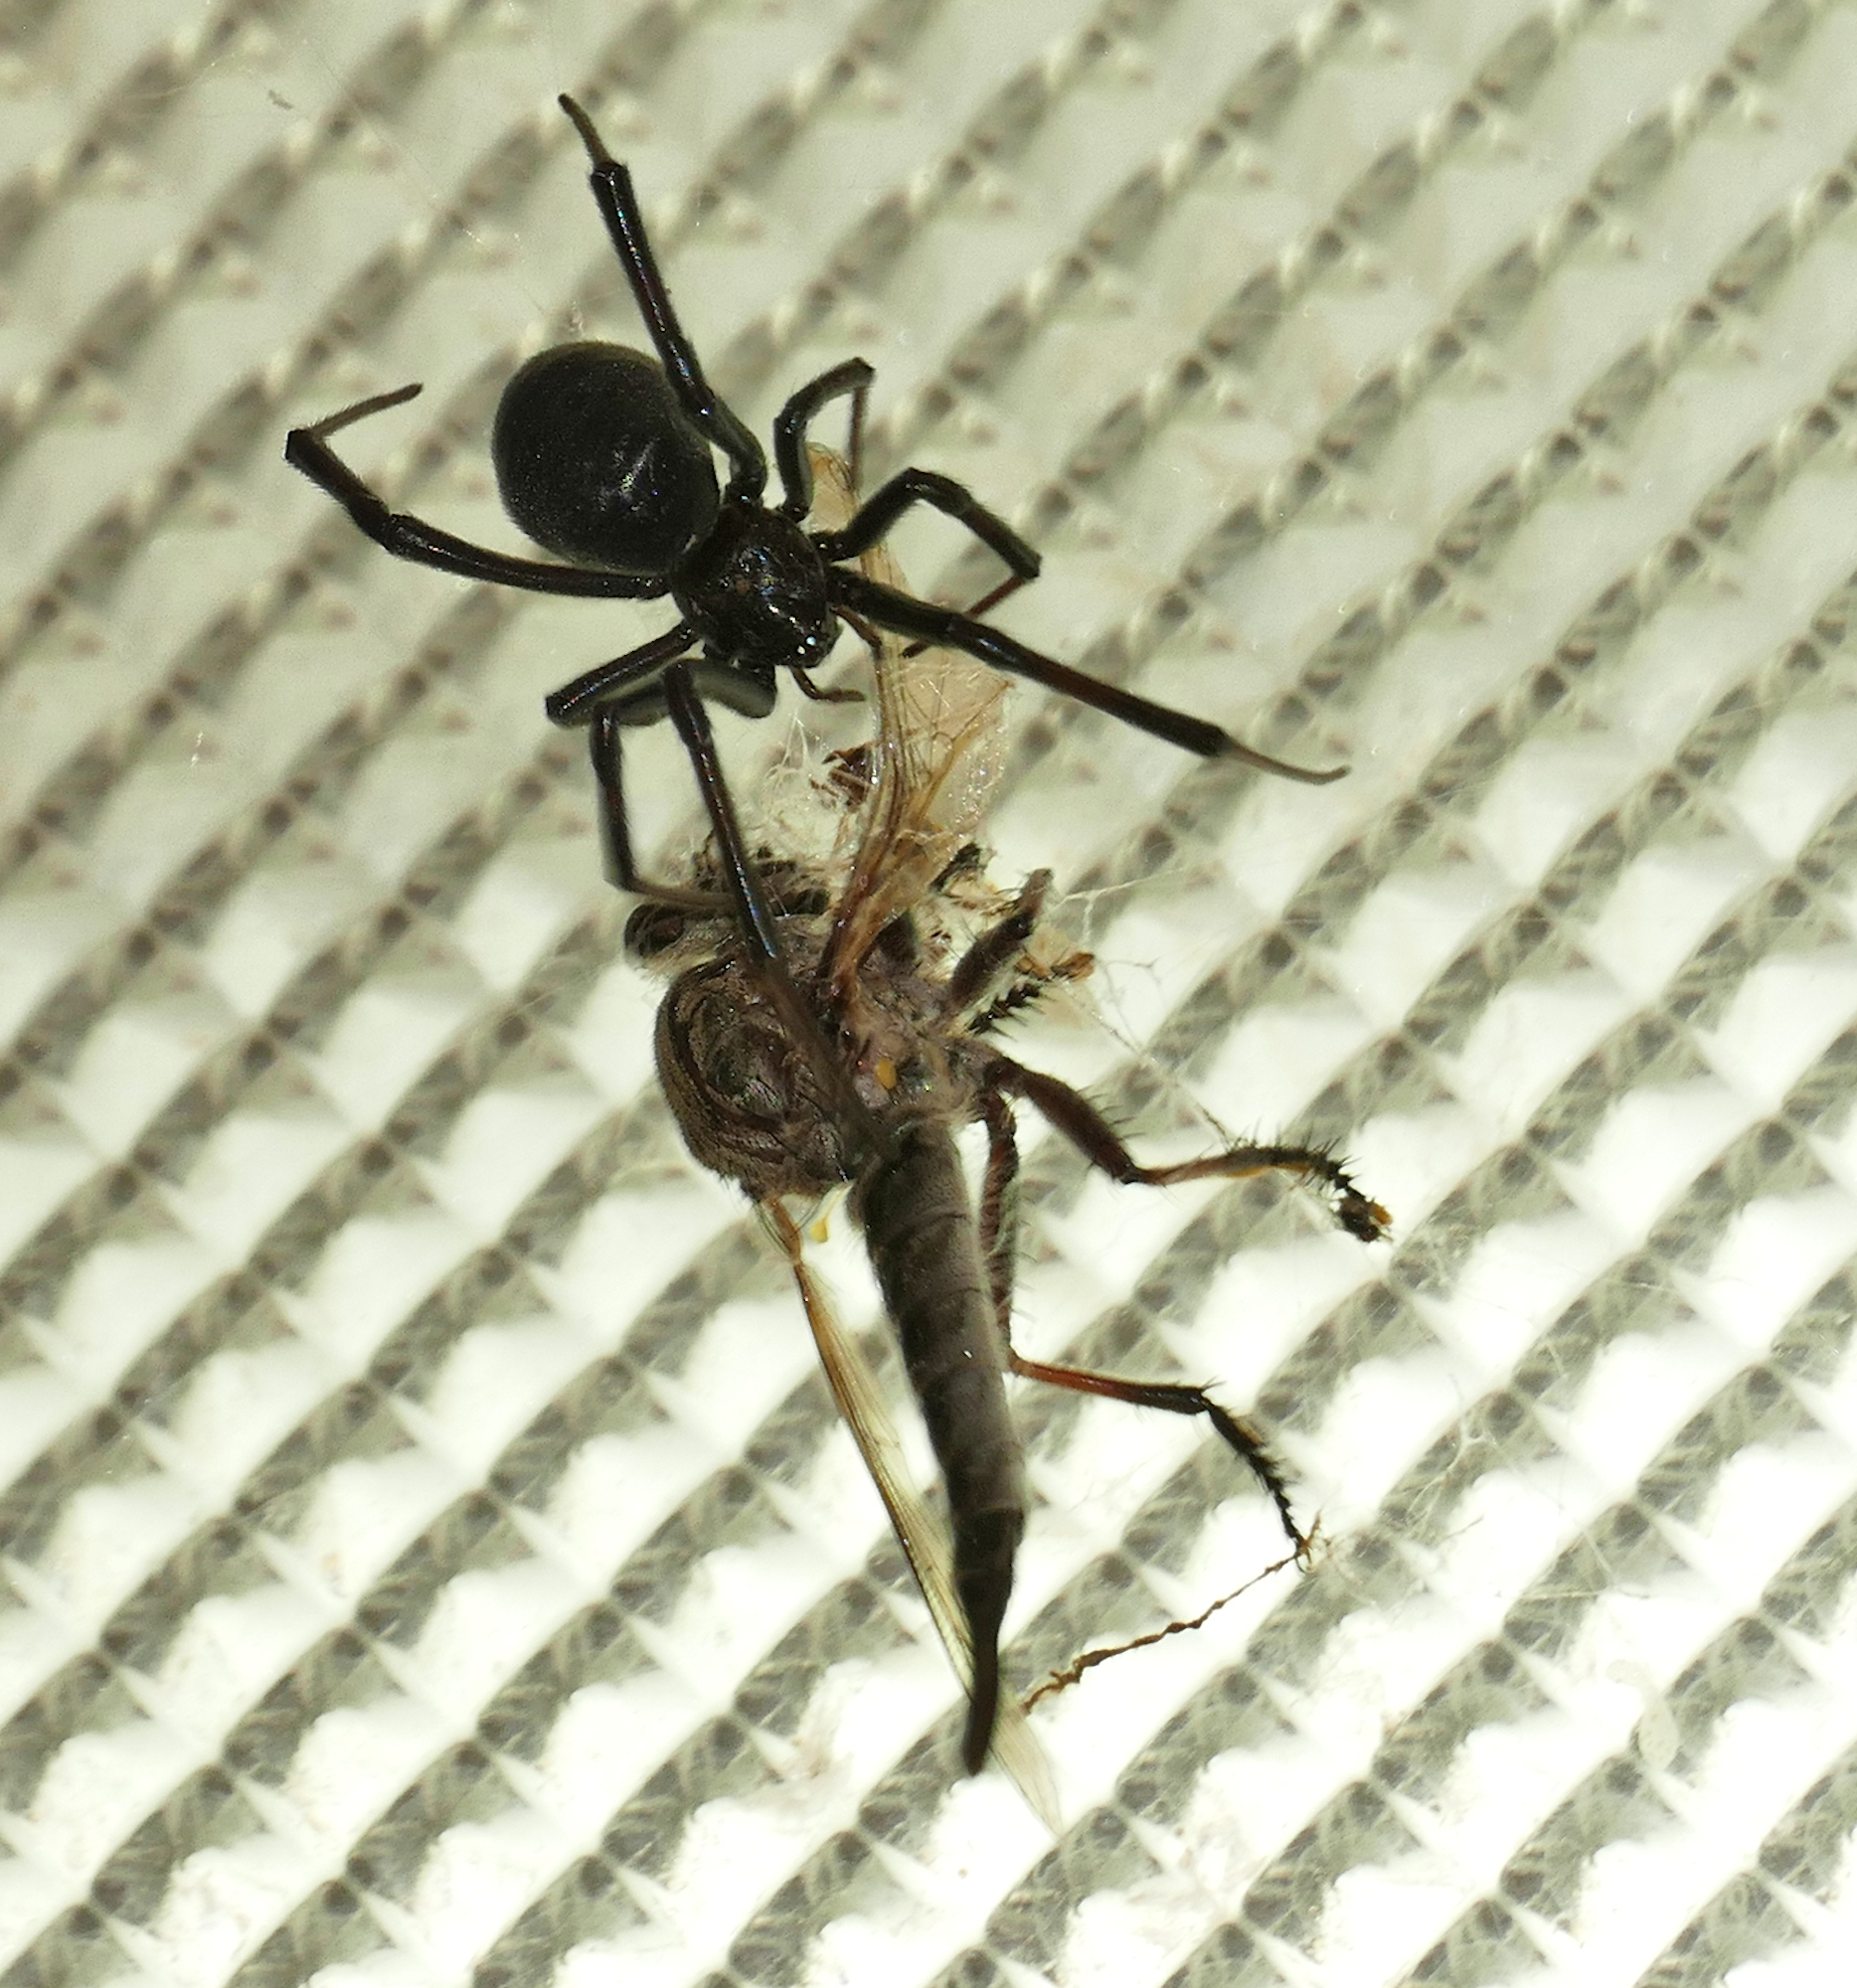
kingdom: Animalia
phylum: Arthropoda
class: Arachnida
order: Araneae
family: Theridiidae
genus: Latrodectus
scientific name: Latrodectus hesperus
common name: Western black widow
